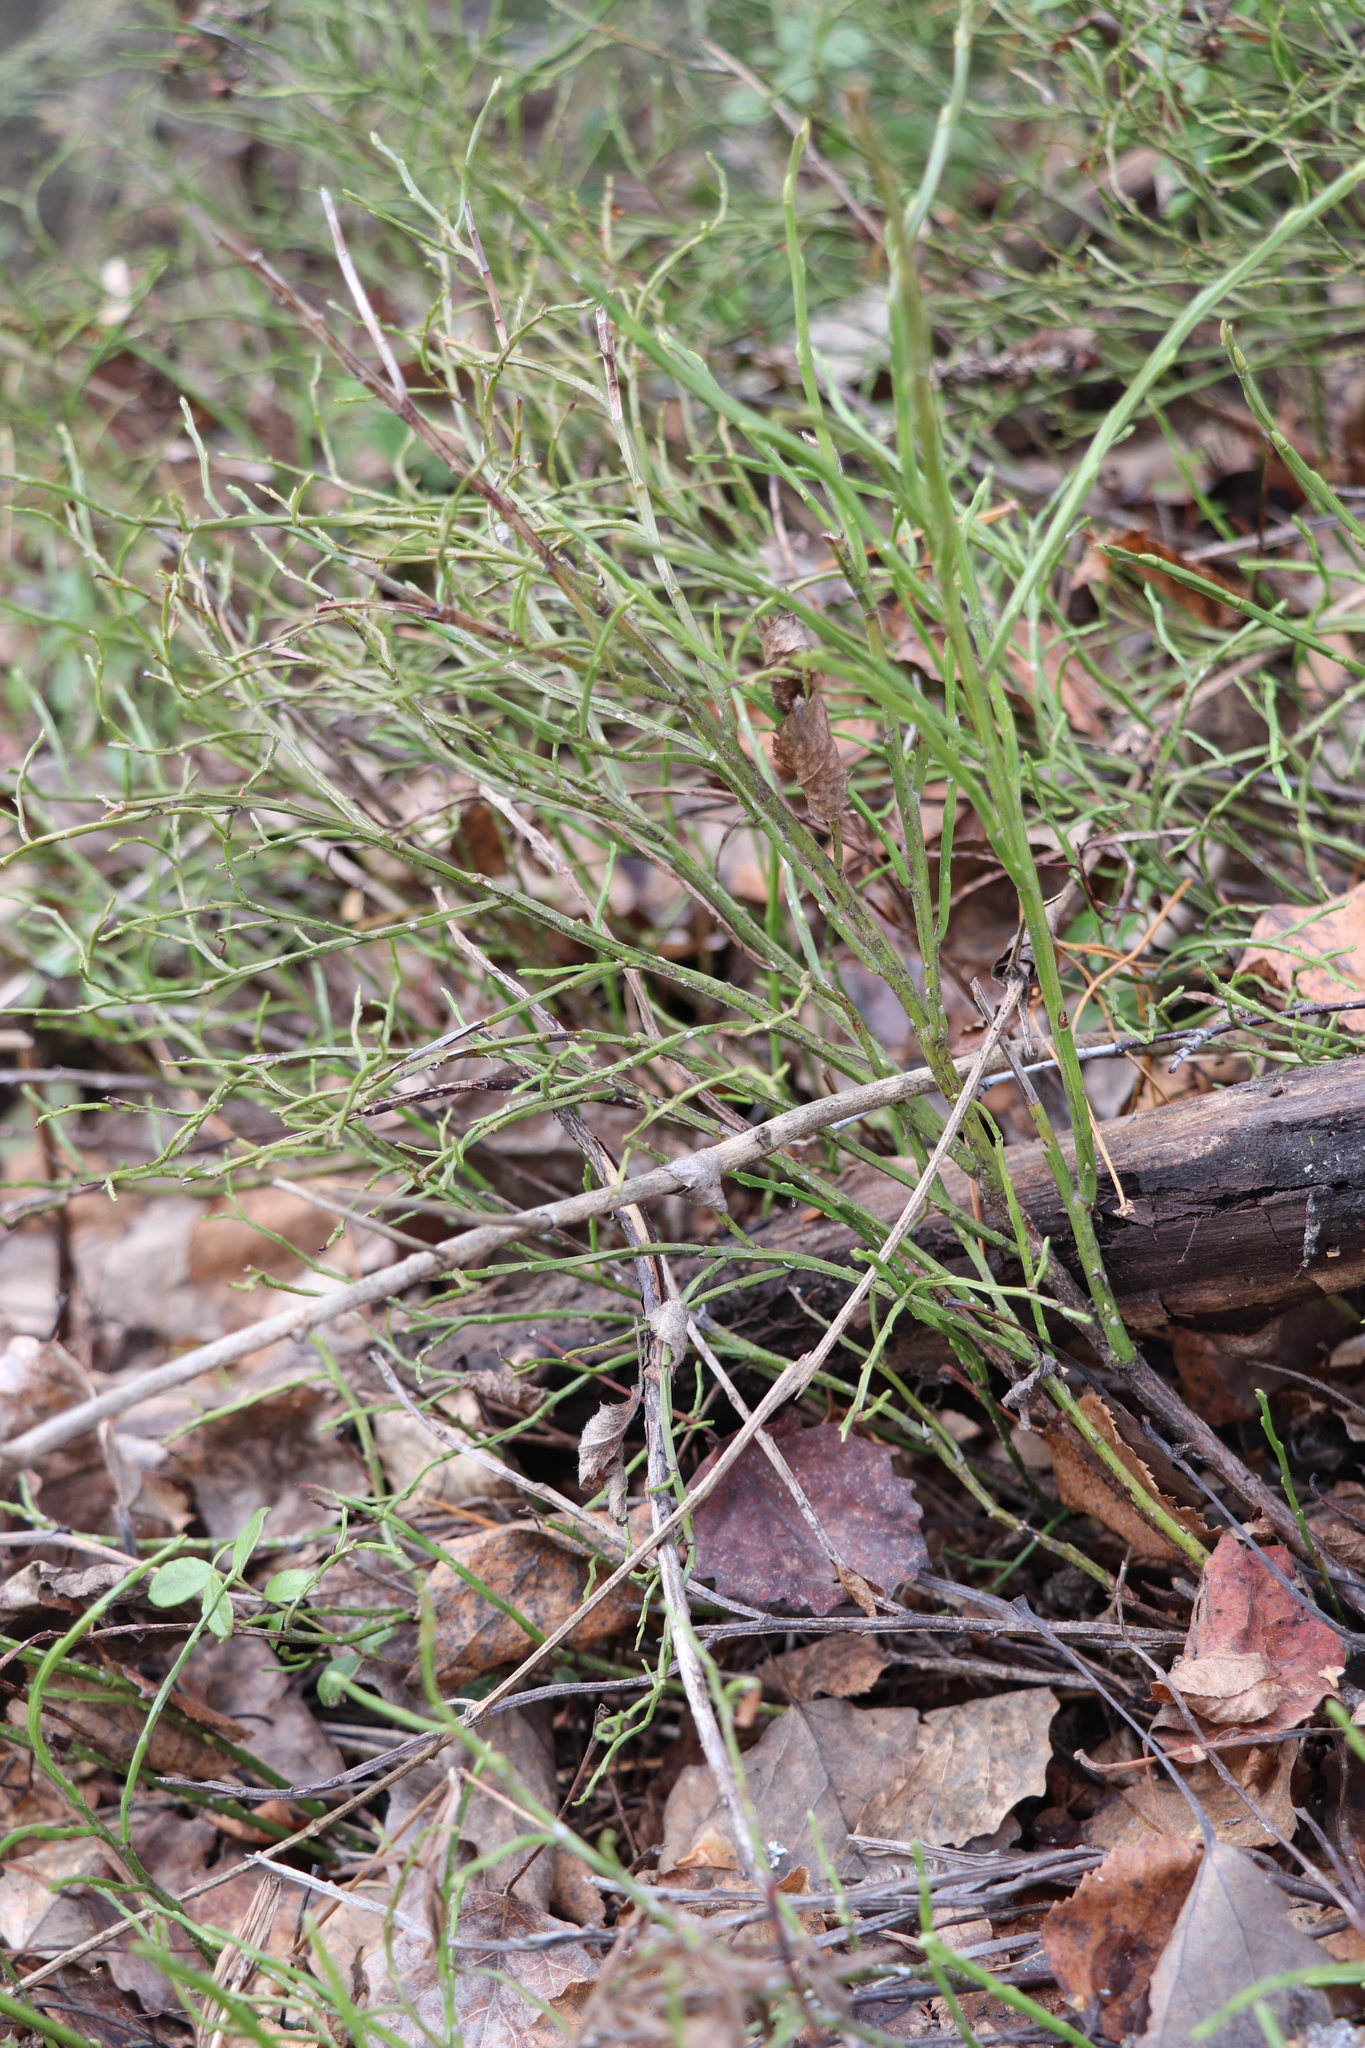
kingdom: Plantae
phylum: Tracheophyta
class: Magnoliopsida
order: Ericales
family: Ericaceae
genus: Vaccinium
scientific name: Vaccinium myrtillus
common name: Bilberry
